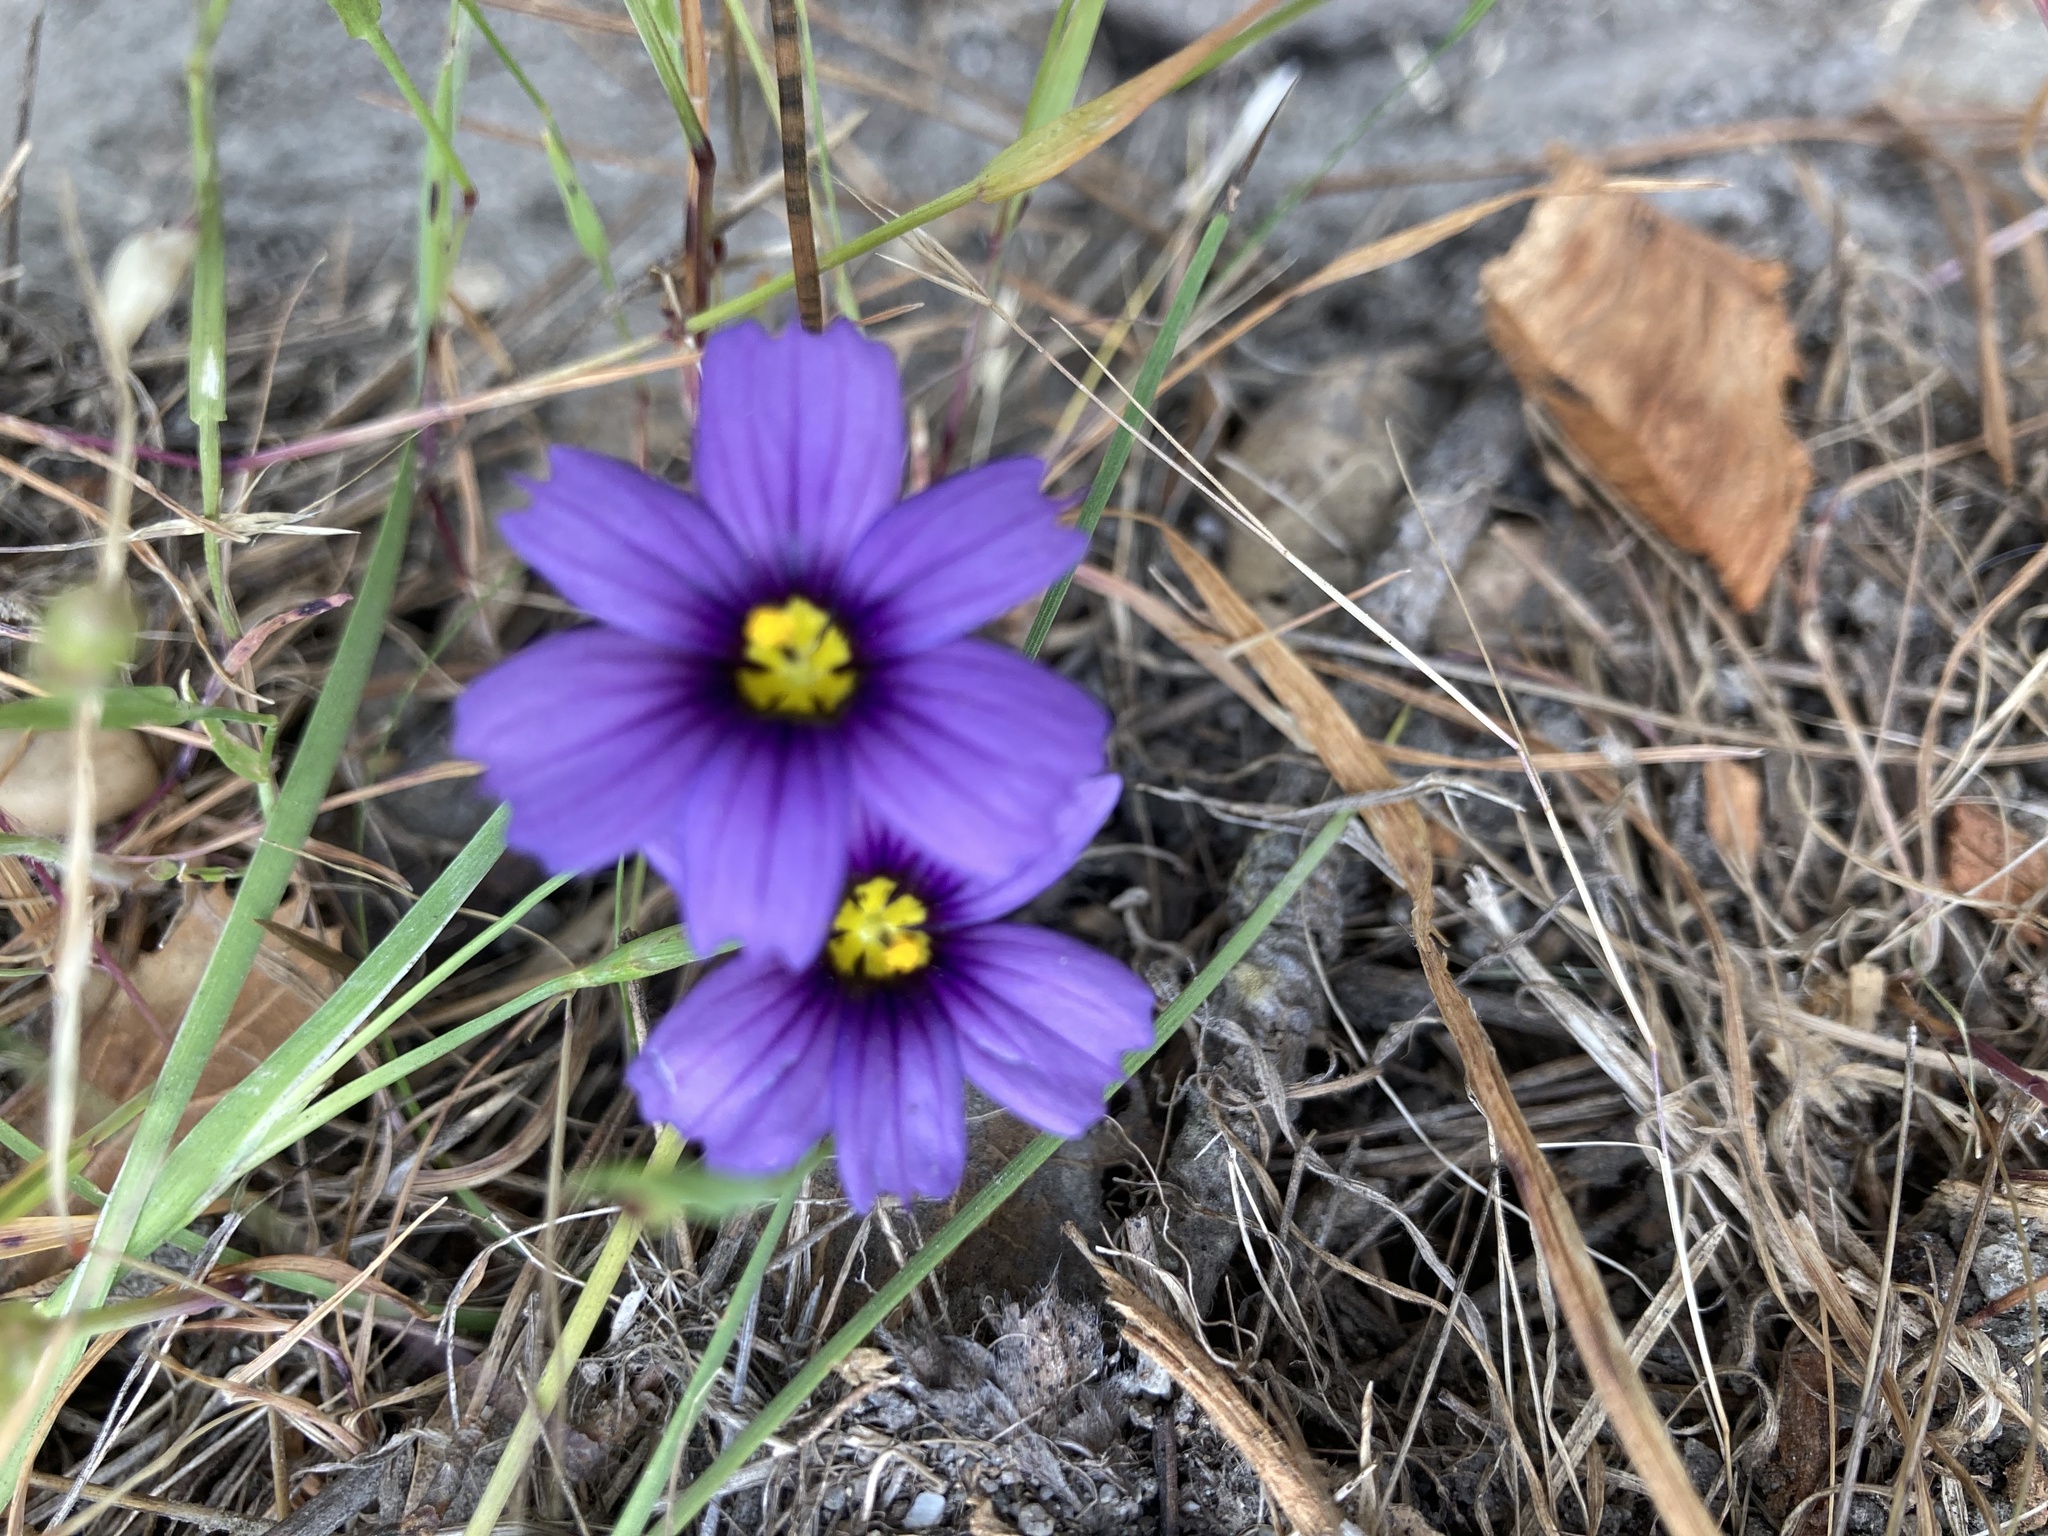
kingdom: Plantae
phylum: Tracheophyta
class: Liliopsida
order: Asparagales
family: Iridaceae
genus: Sisyrinchium
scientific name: Sisyrinchium bellum
